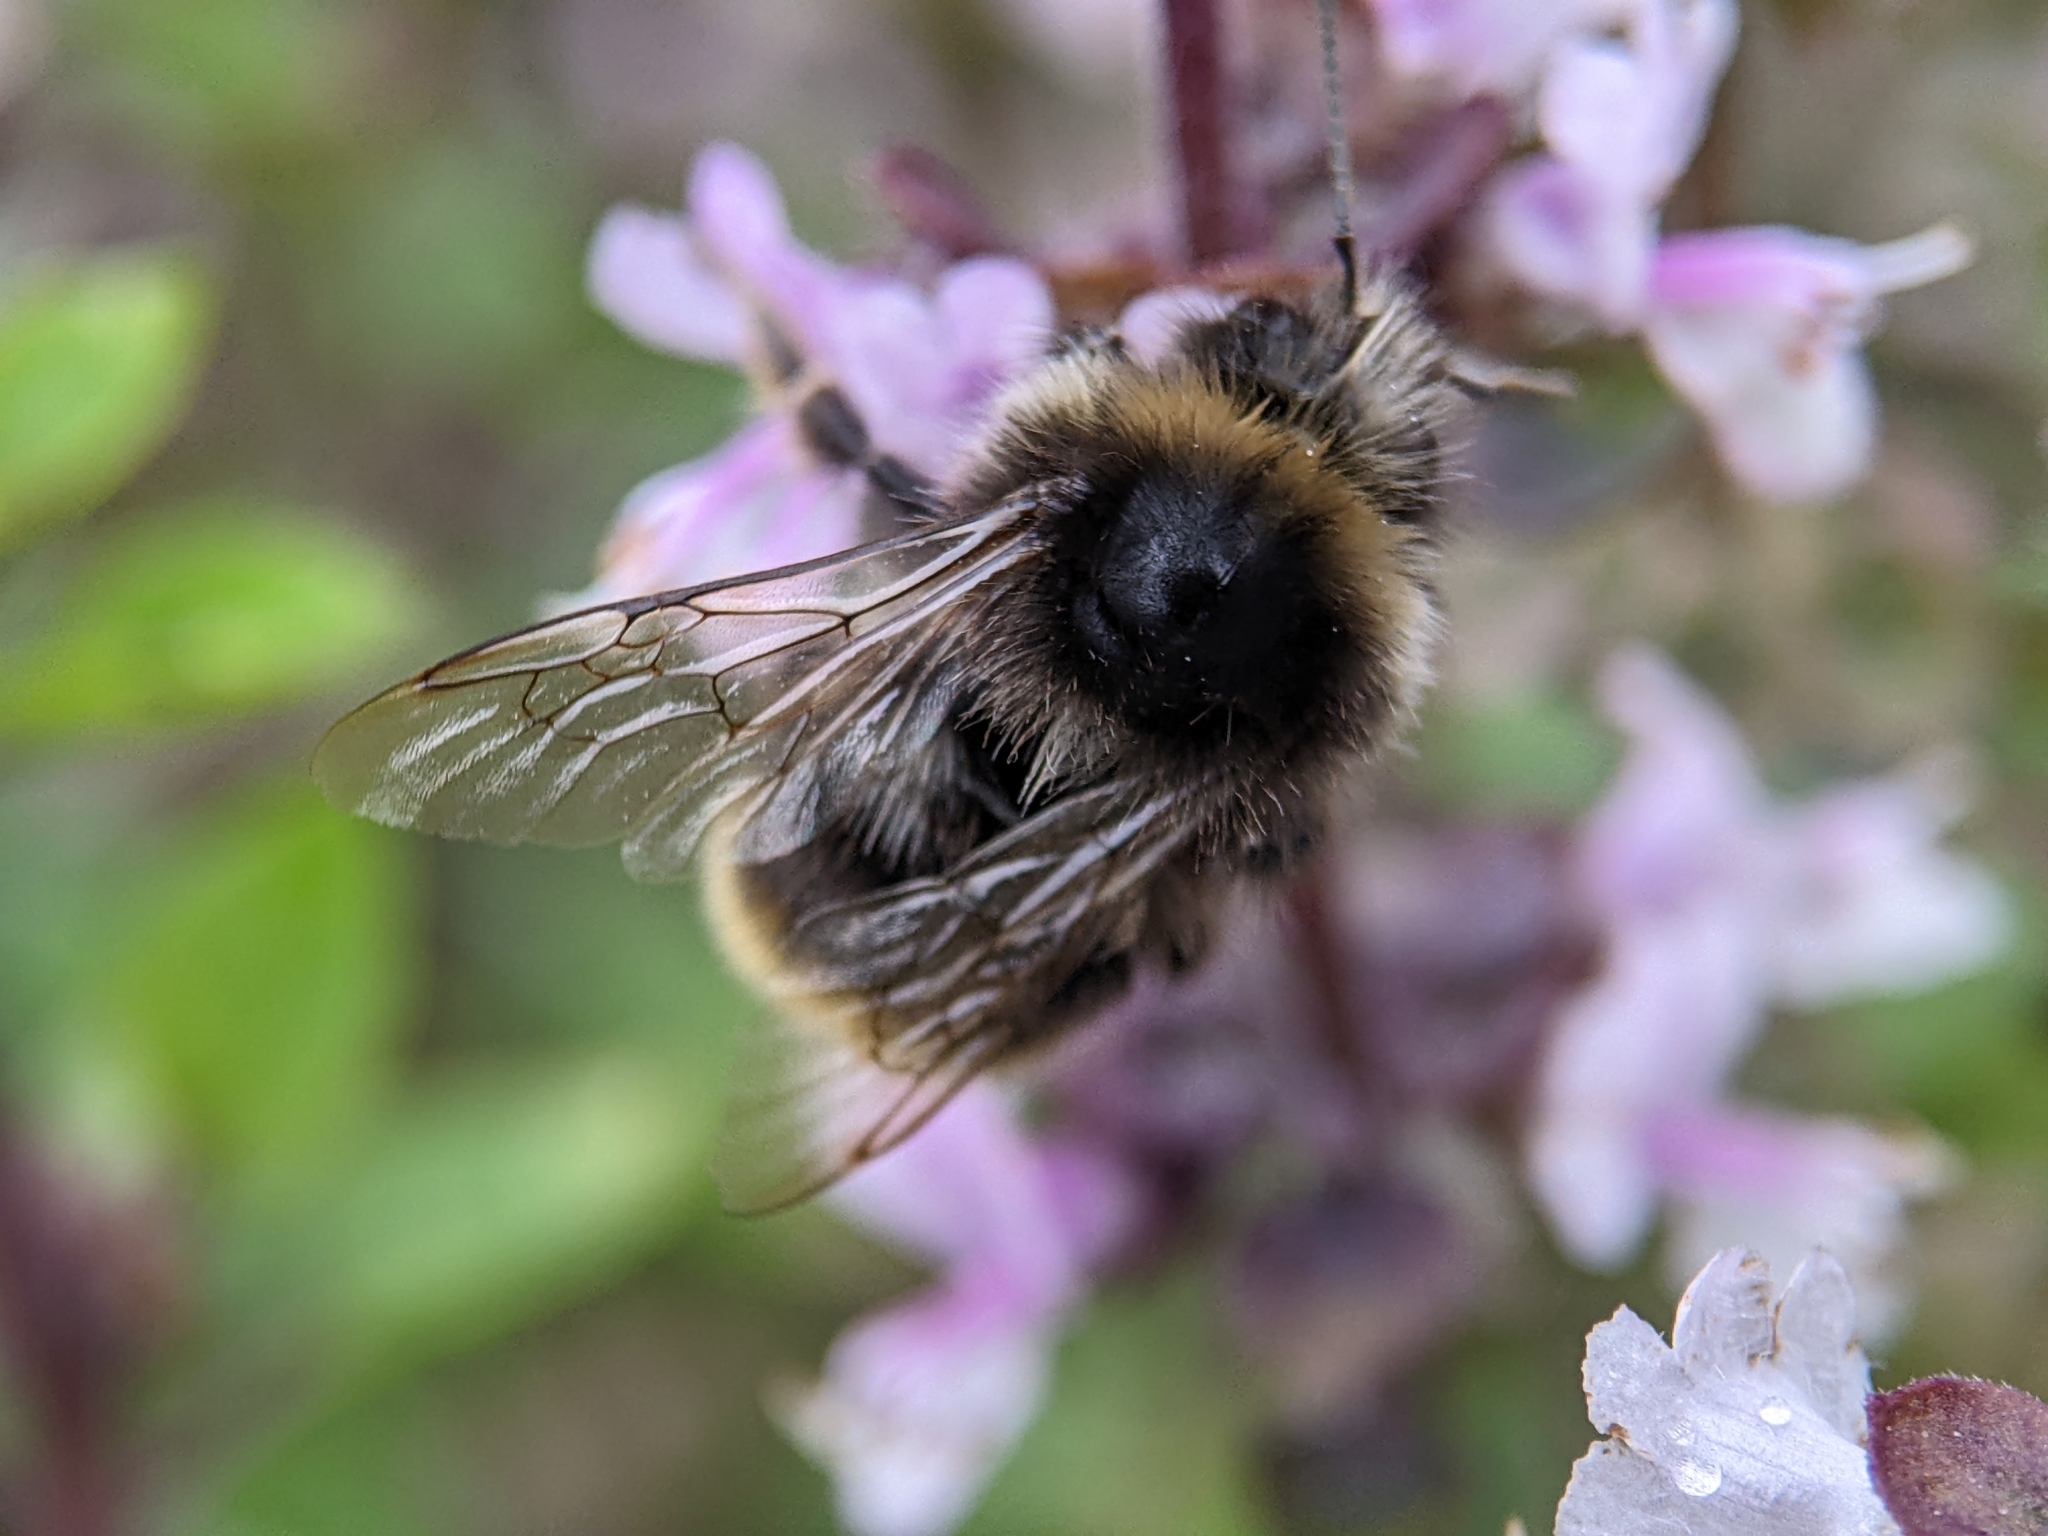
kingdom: Animalia
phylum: Arthropoda
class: Insecta
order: Hymenoptera
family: Apidae
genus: Bombus
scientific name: Bombus lapidarius
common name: Large red-tailed humble-bee
